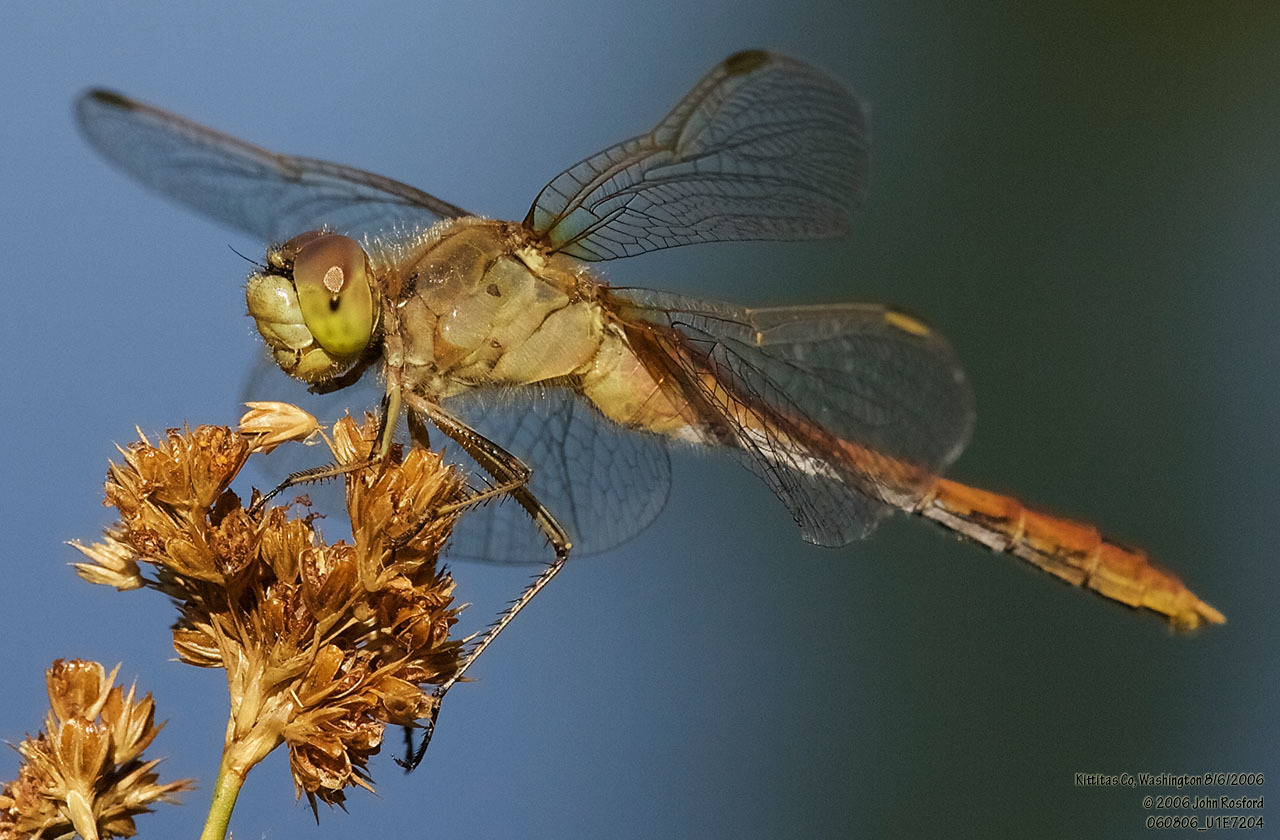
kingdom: Animalia
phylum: Arthropoda
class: Insecta
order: Odonata
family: Libellulidae
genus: Sympetrum
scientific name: Sympetrum costiferum
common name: Saffron-winged meadowhawk
